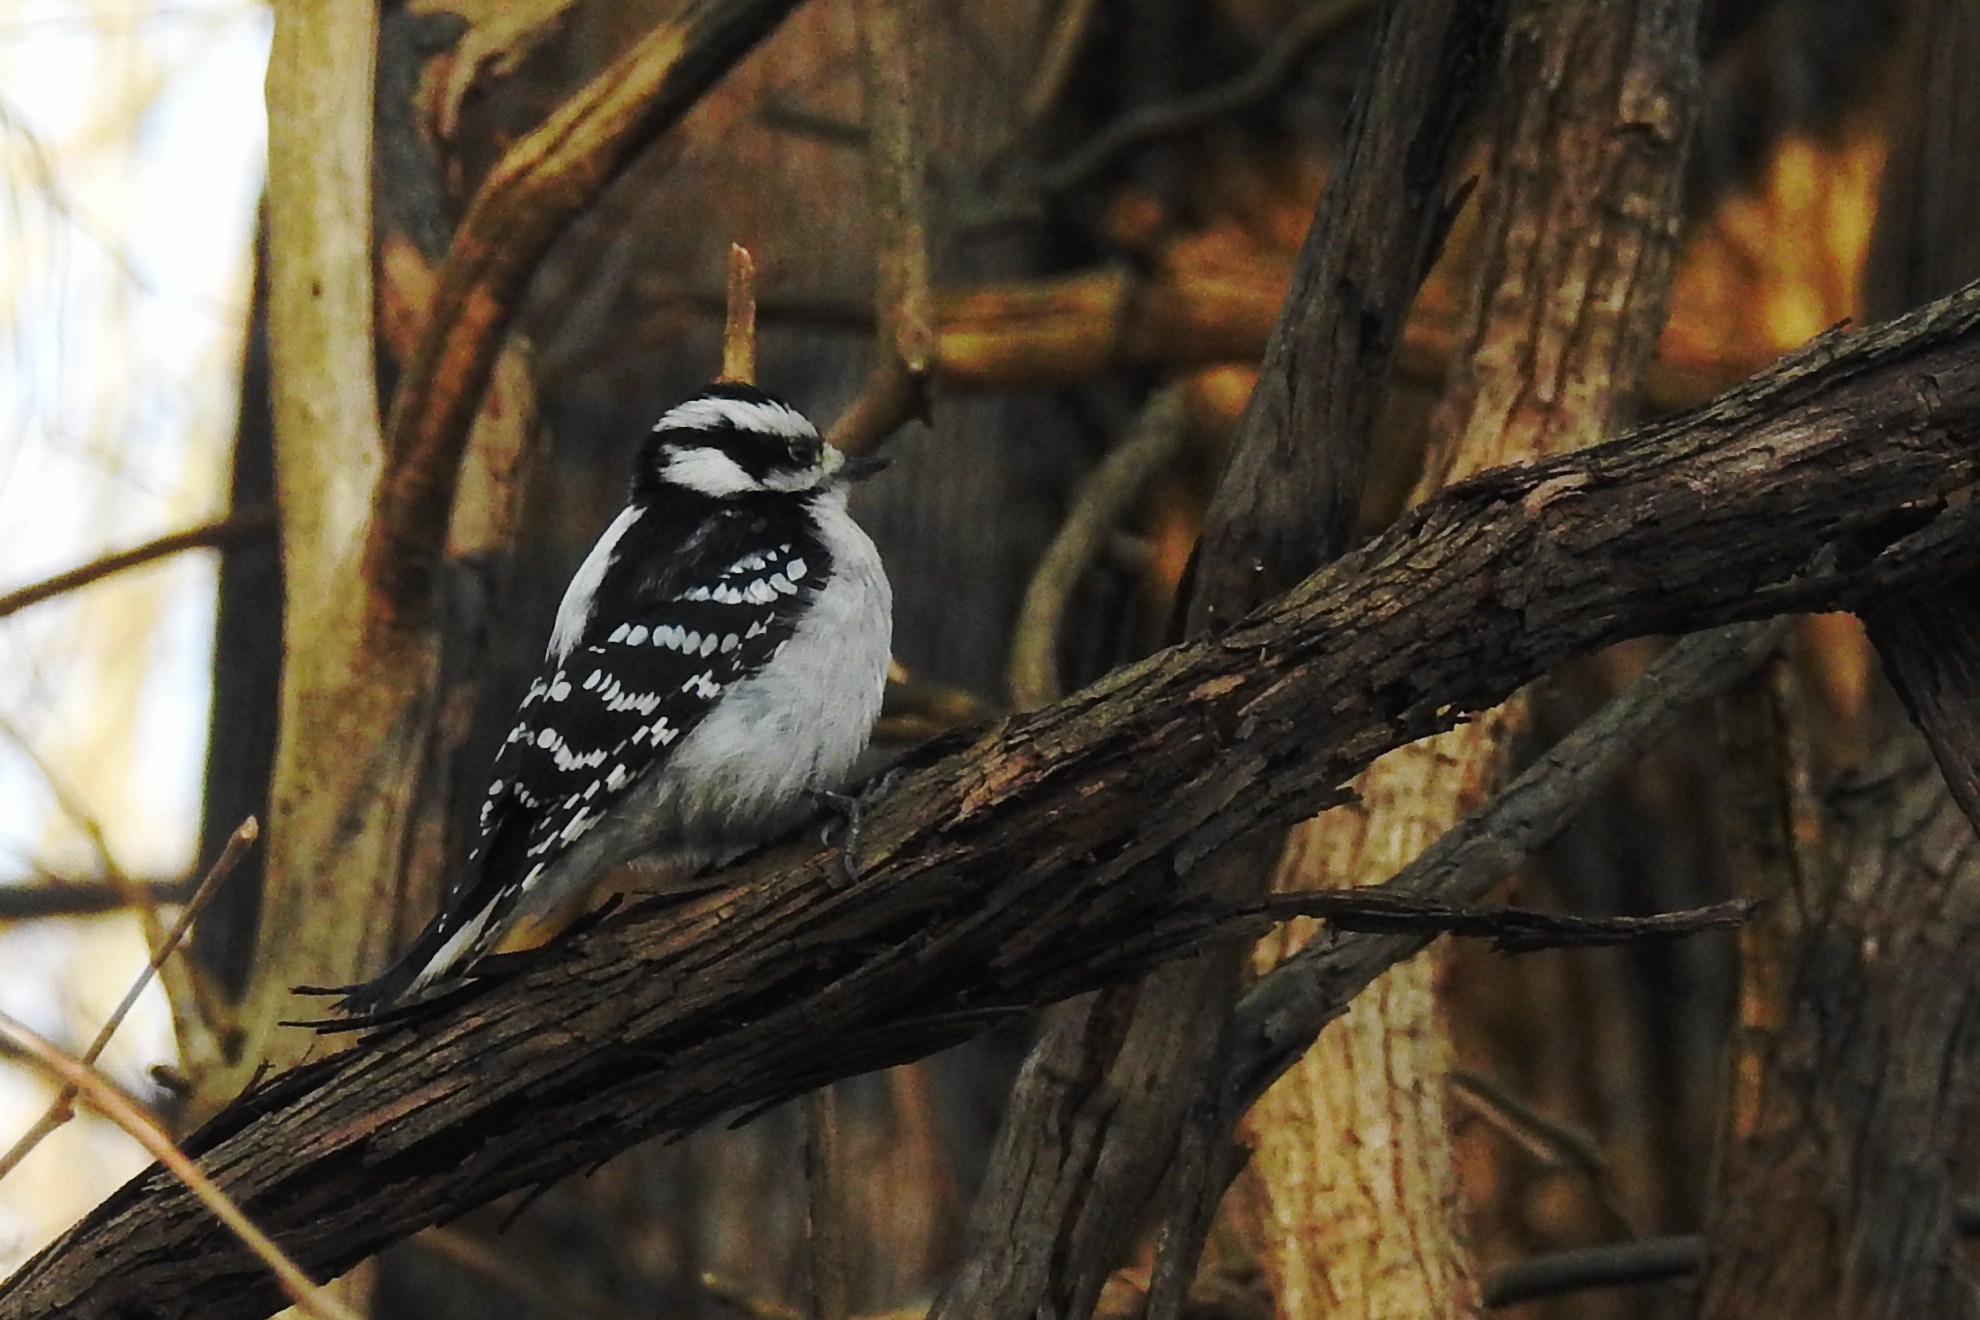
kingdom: Animalia
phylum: Chordata
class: Aves
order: Piciformes
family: Picidae
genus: Dryobates
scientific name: Dryobates pubescens
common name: Downy woodpecker
